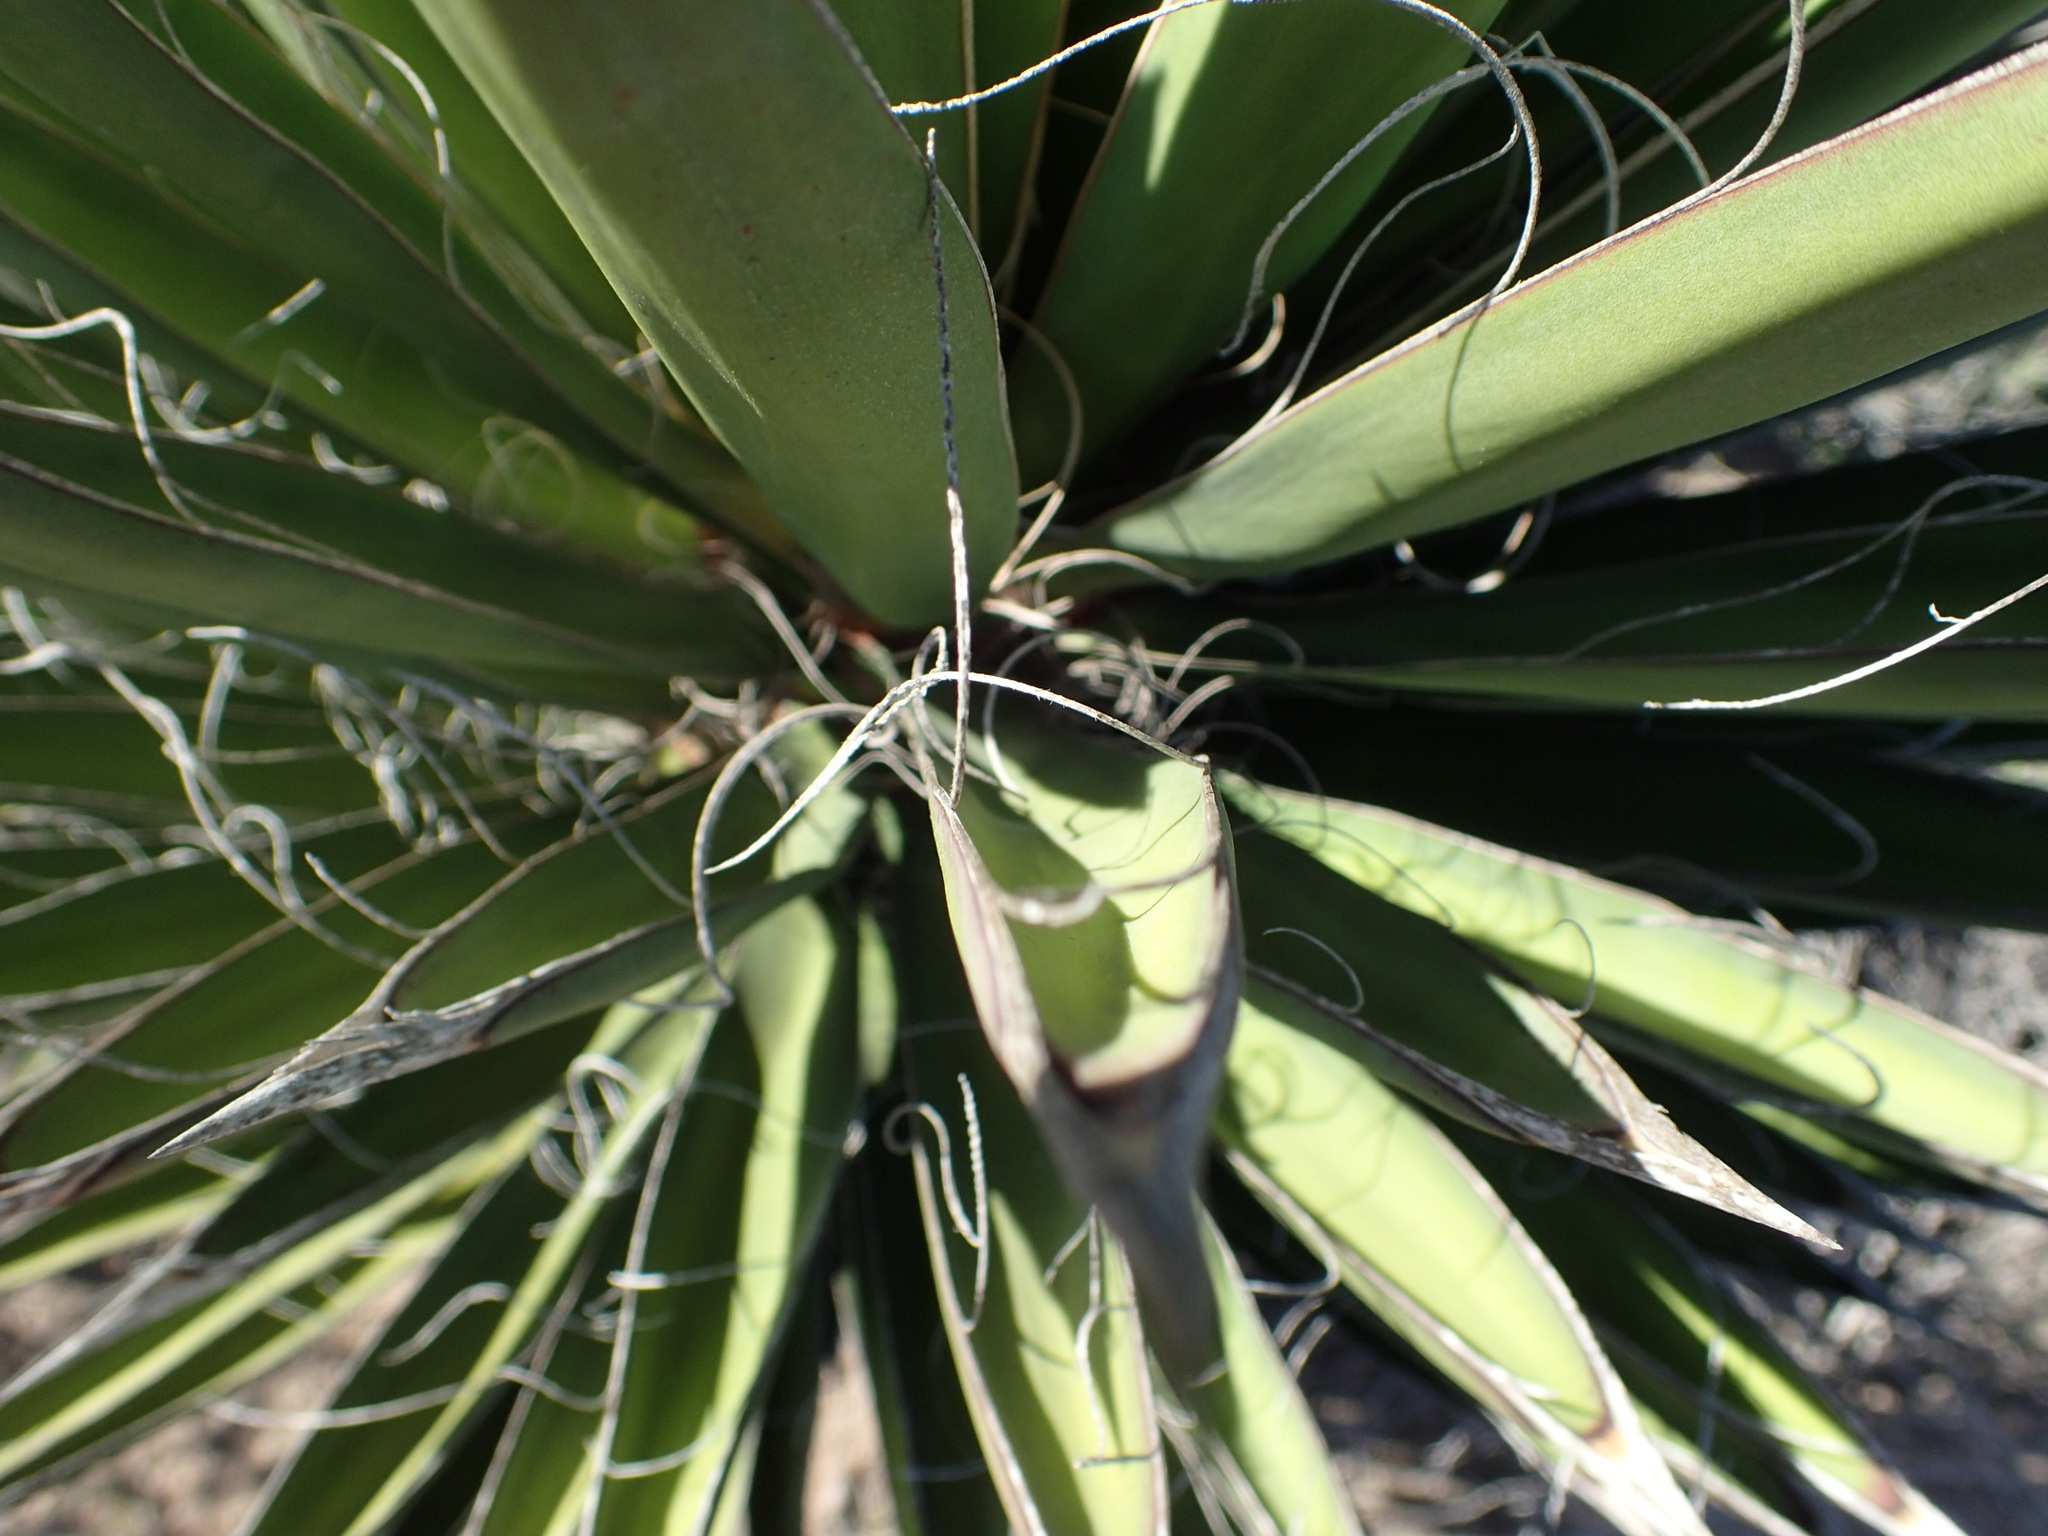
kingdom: Plantae
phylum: Tracheophyta
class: Liliopsida
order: Asparagales
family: Asparagaceae
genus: Yucca
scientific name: Yucca valida
